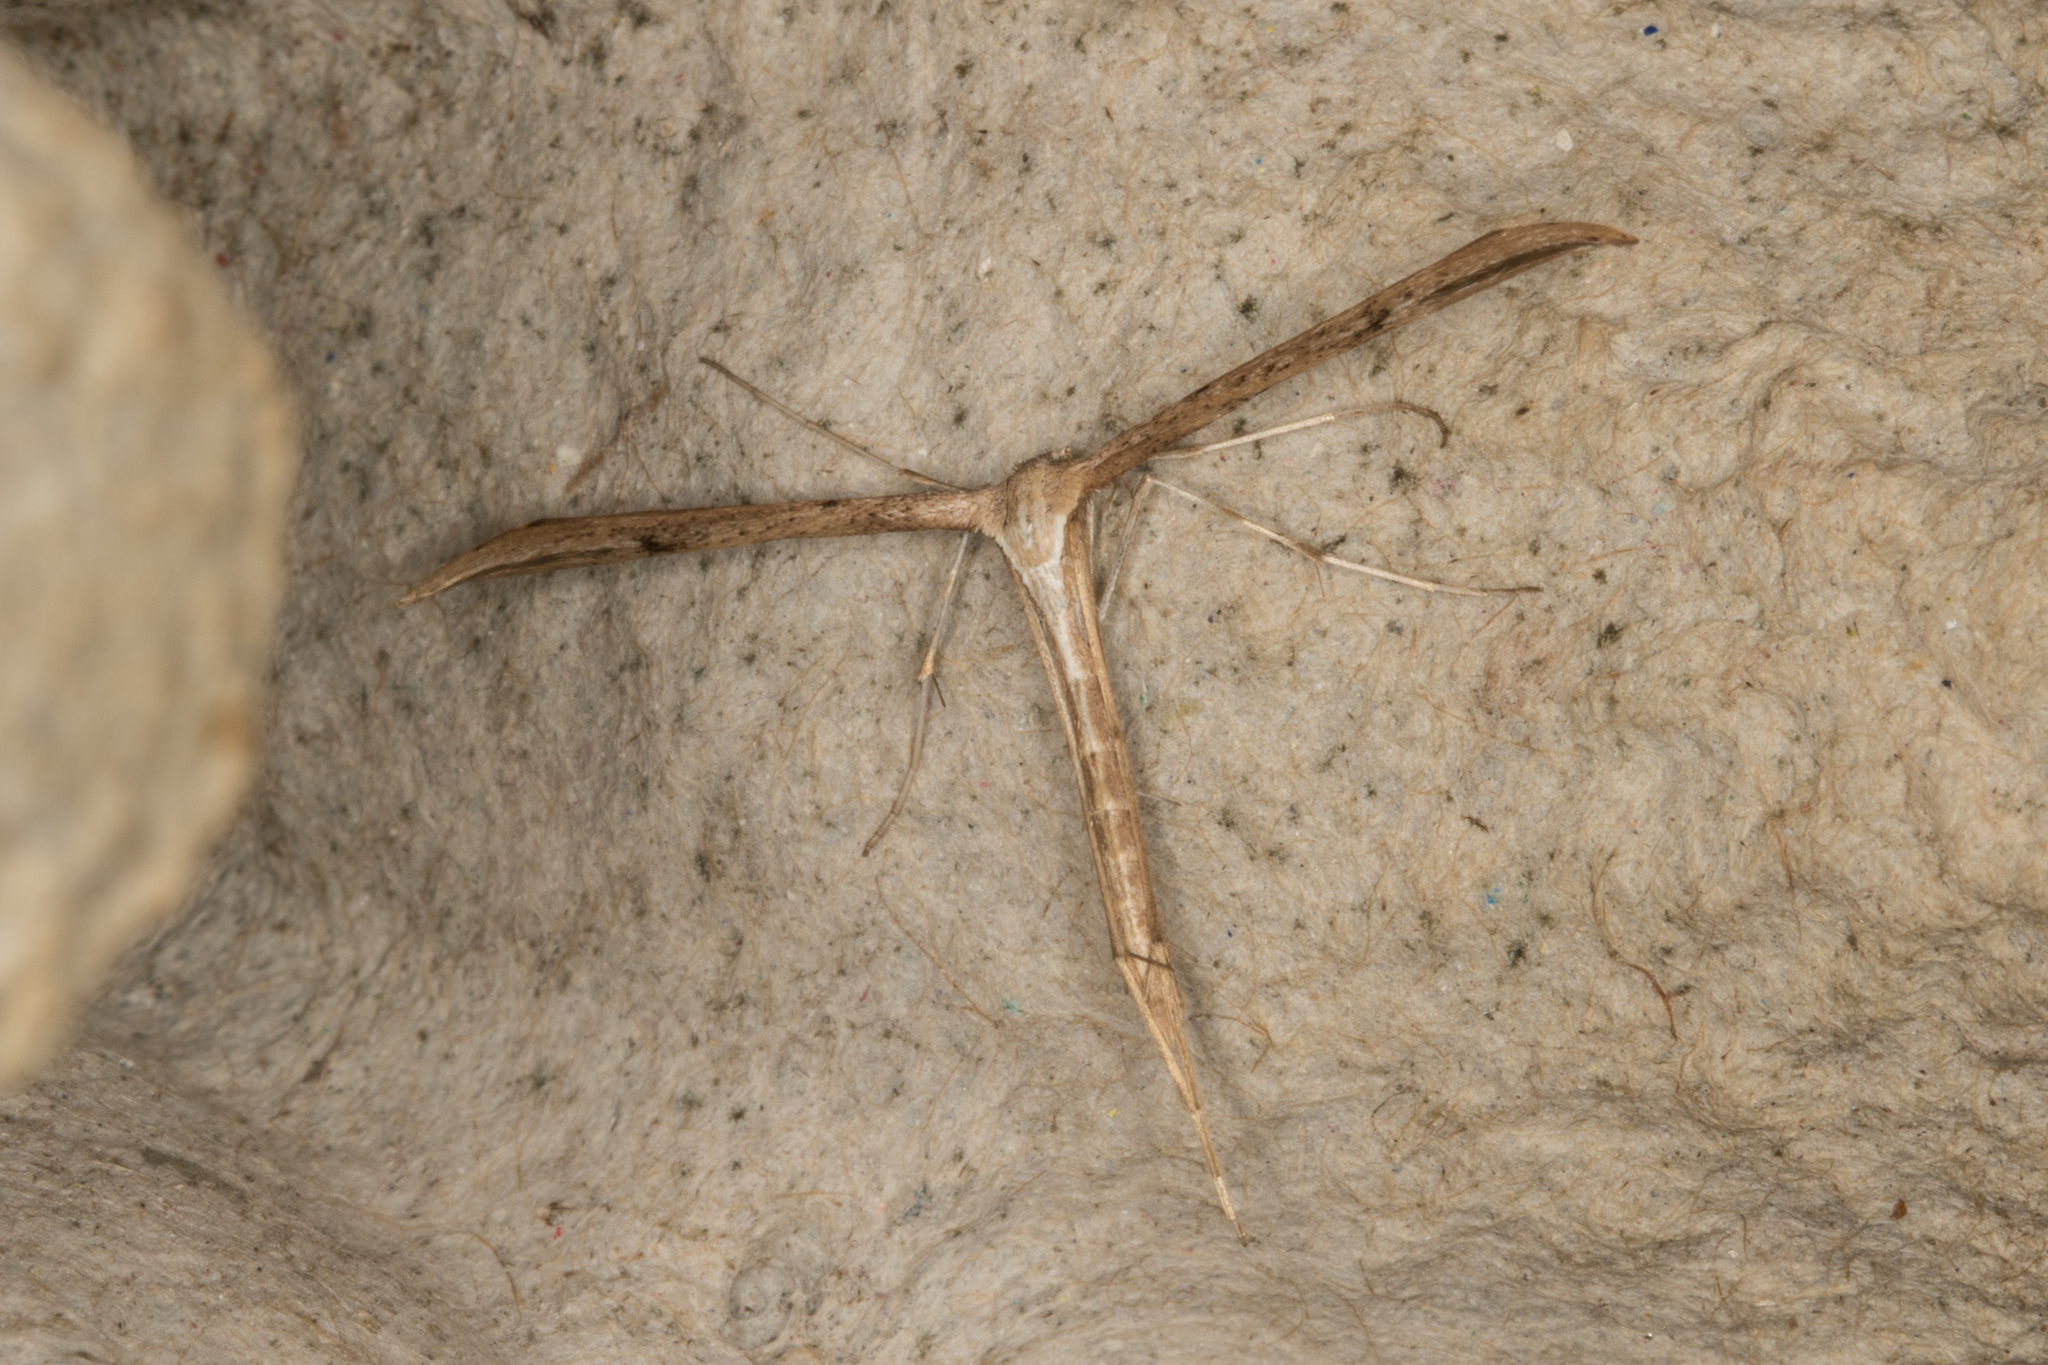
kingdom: Animalia
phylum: Arthropoda
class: Insecta
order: Lepidoptera
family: Pterophoridae
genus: Emmelina
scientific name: Emmelina monodactyla
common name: Common plume
